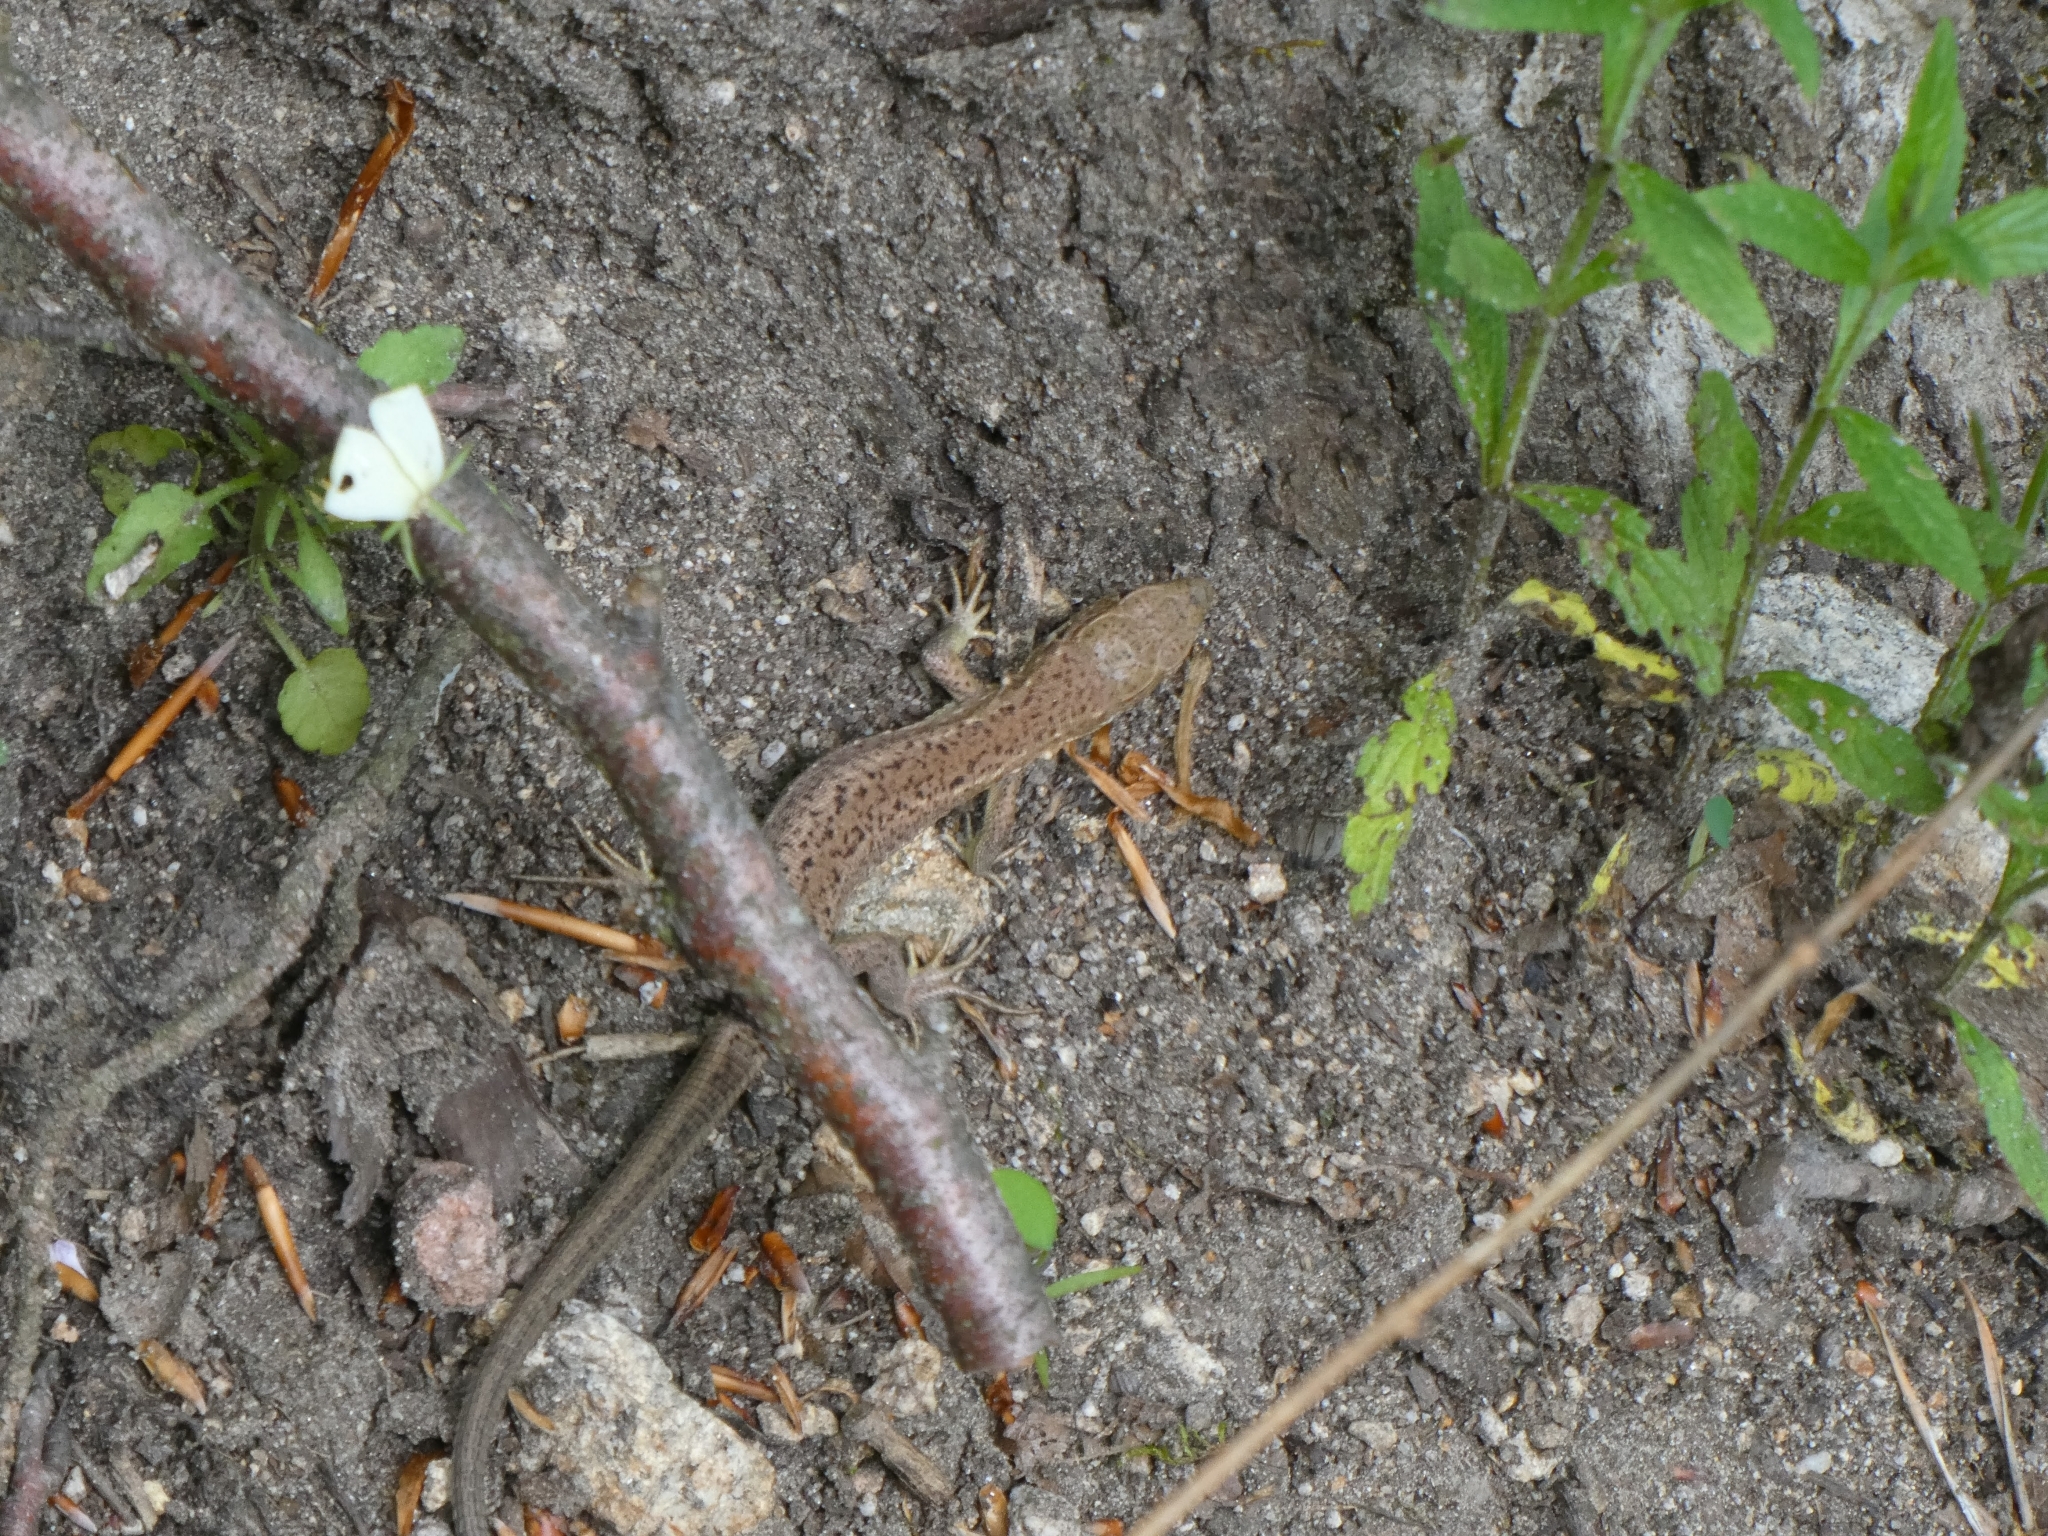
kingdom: Animalia
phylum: Chordata
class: Squamata
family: Lacertidae
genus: Lacerta
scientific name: Lacerta viridis
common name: European green lizard
